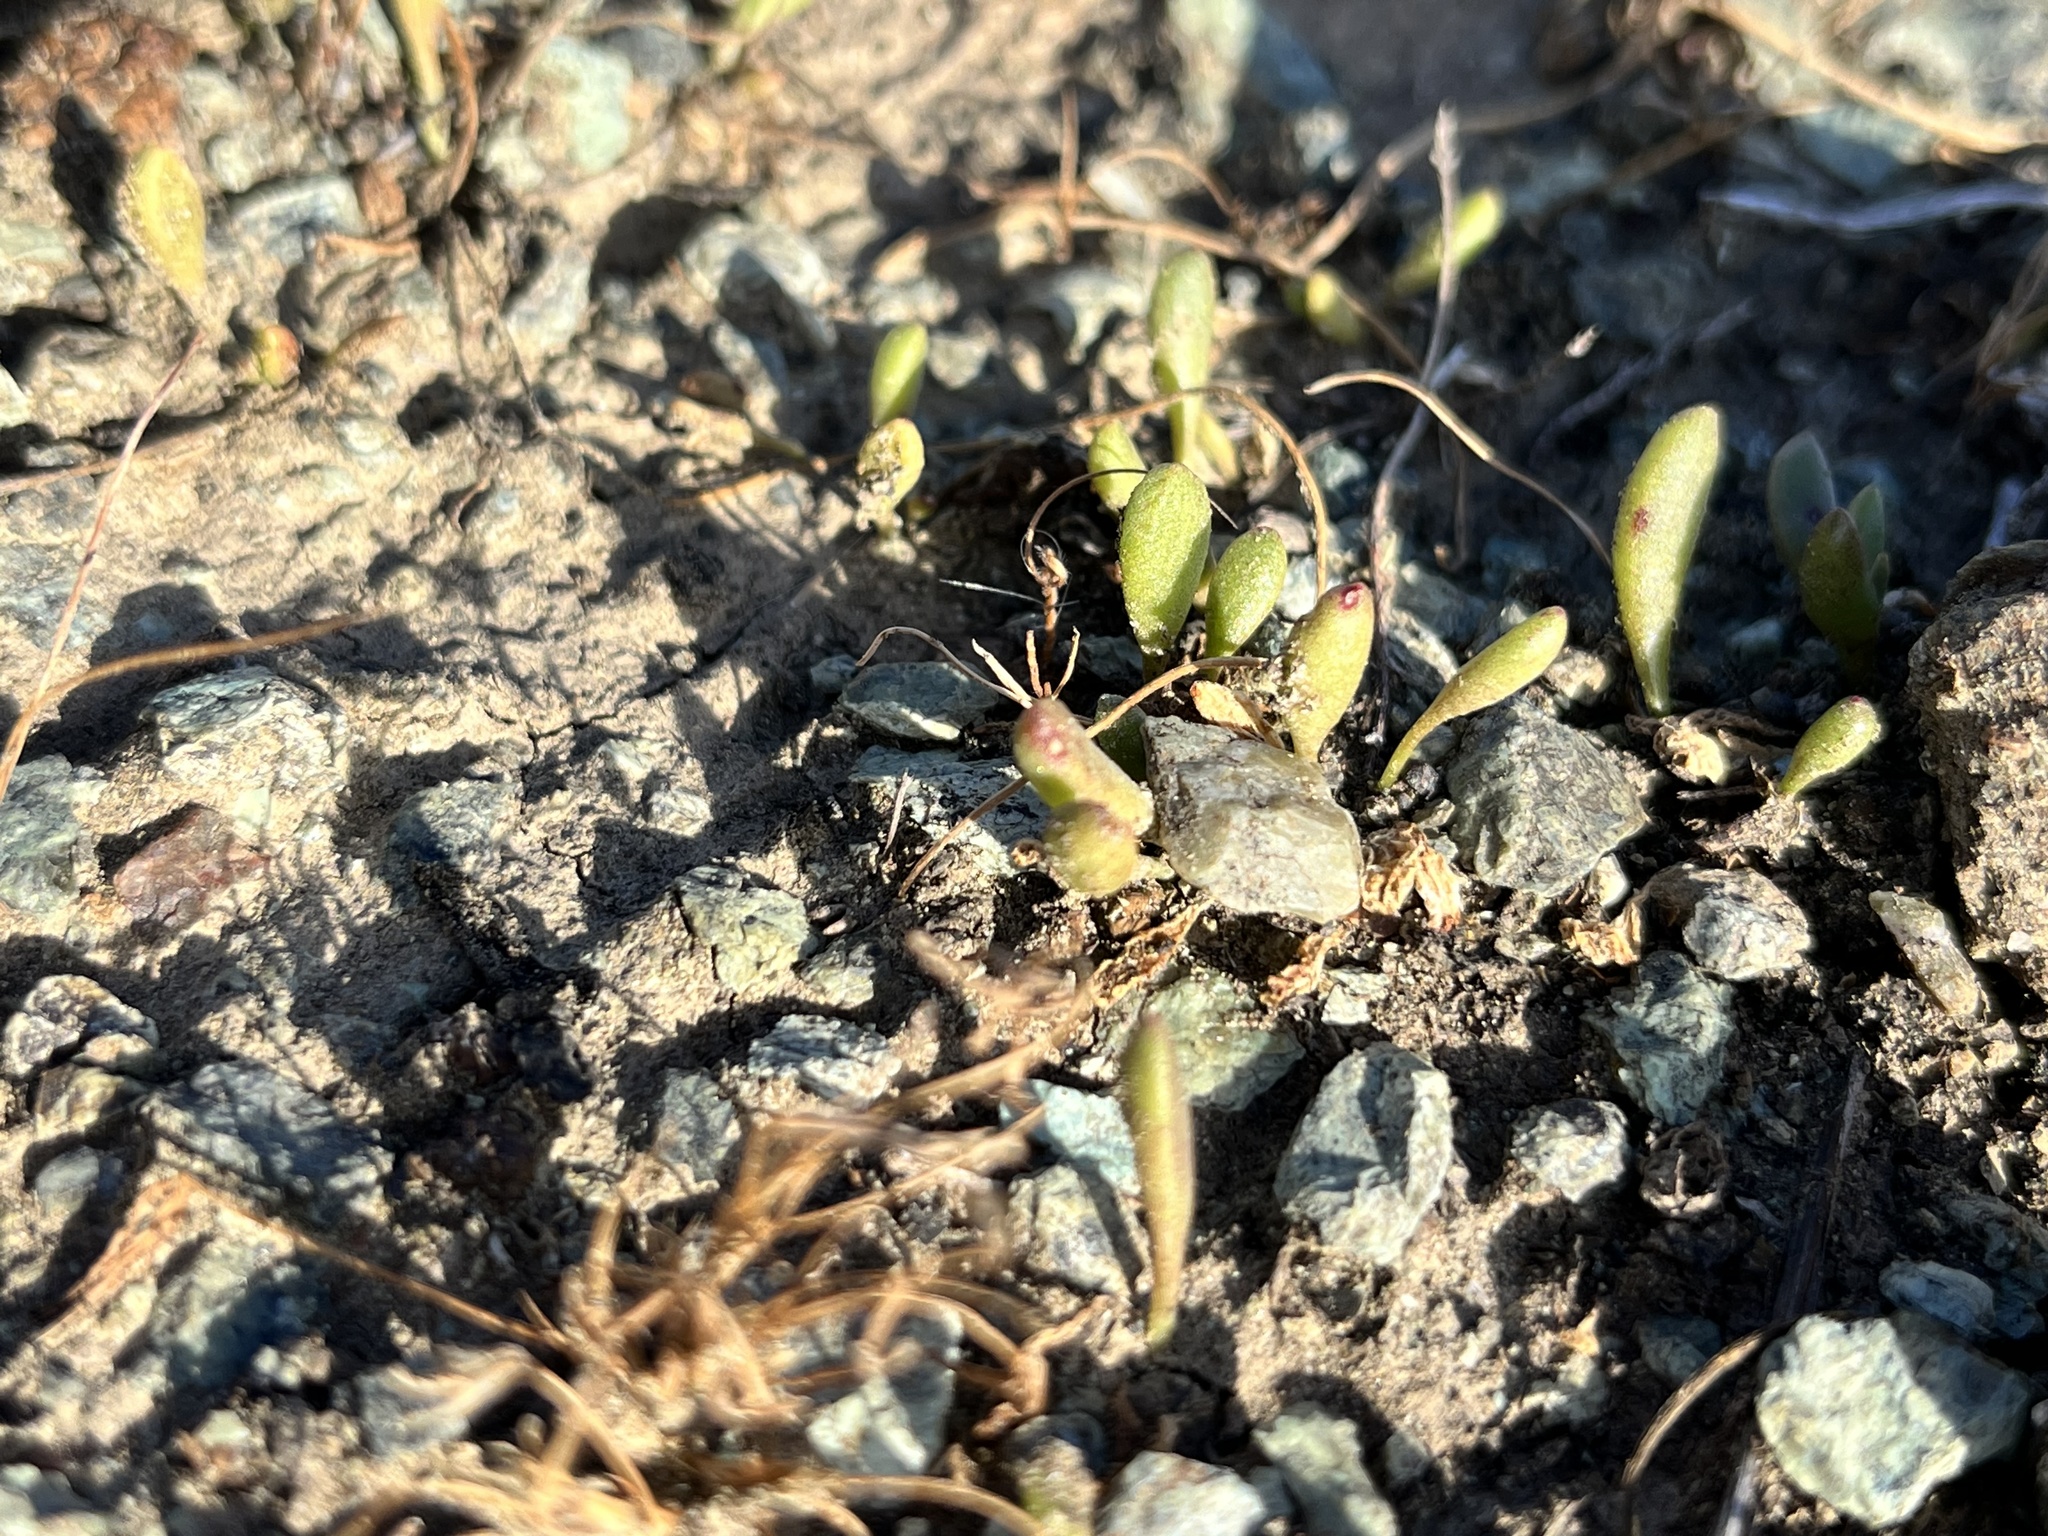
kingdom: Plantae
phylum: Tracheophyta
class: Magnoliopsida
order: Saxifragales
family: Crassulaceae
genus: Dudleya
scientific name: Dudleya blochmaniae
